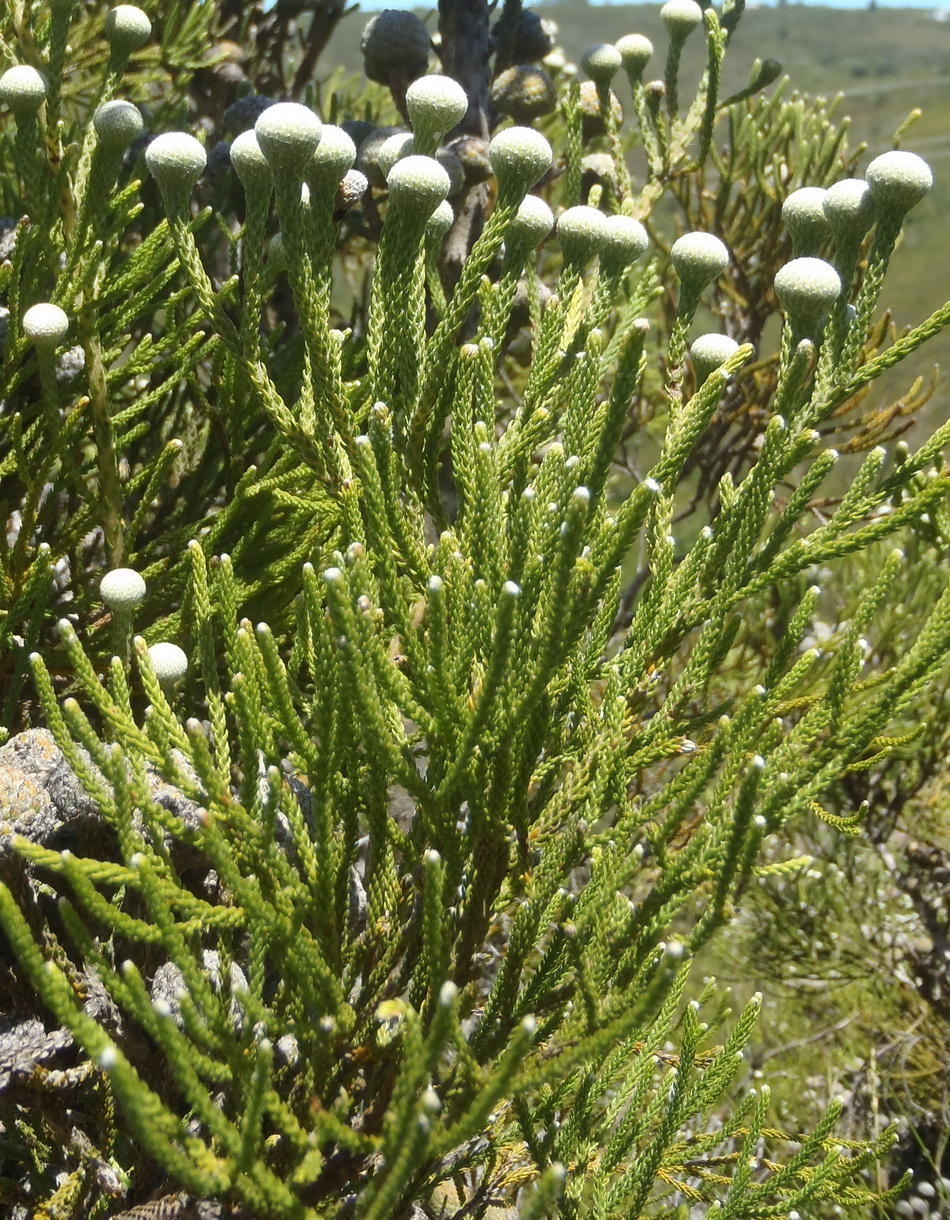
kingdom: Plantae
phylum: Tracheophyta
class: Magnoliopsida
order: Bruniales
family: Bruniaceae
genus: Brunia
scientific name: Brunia noduliflora
